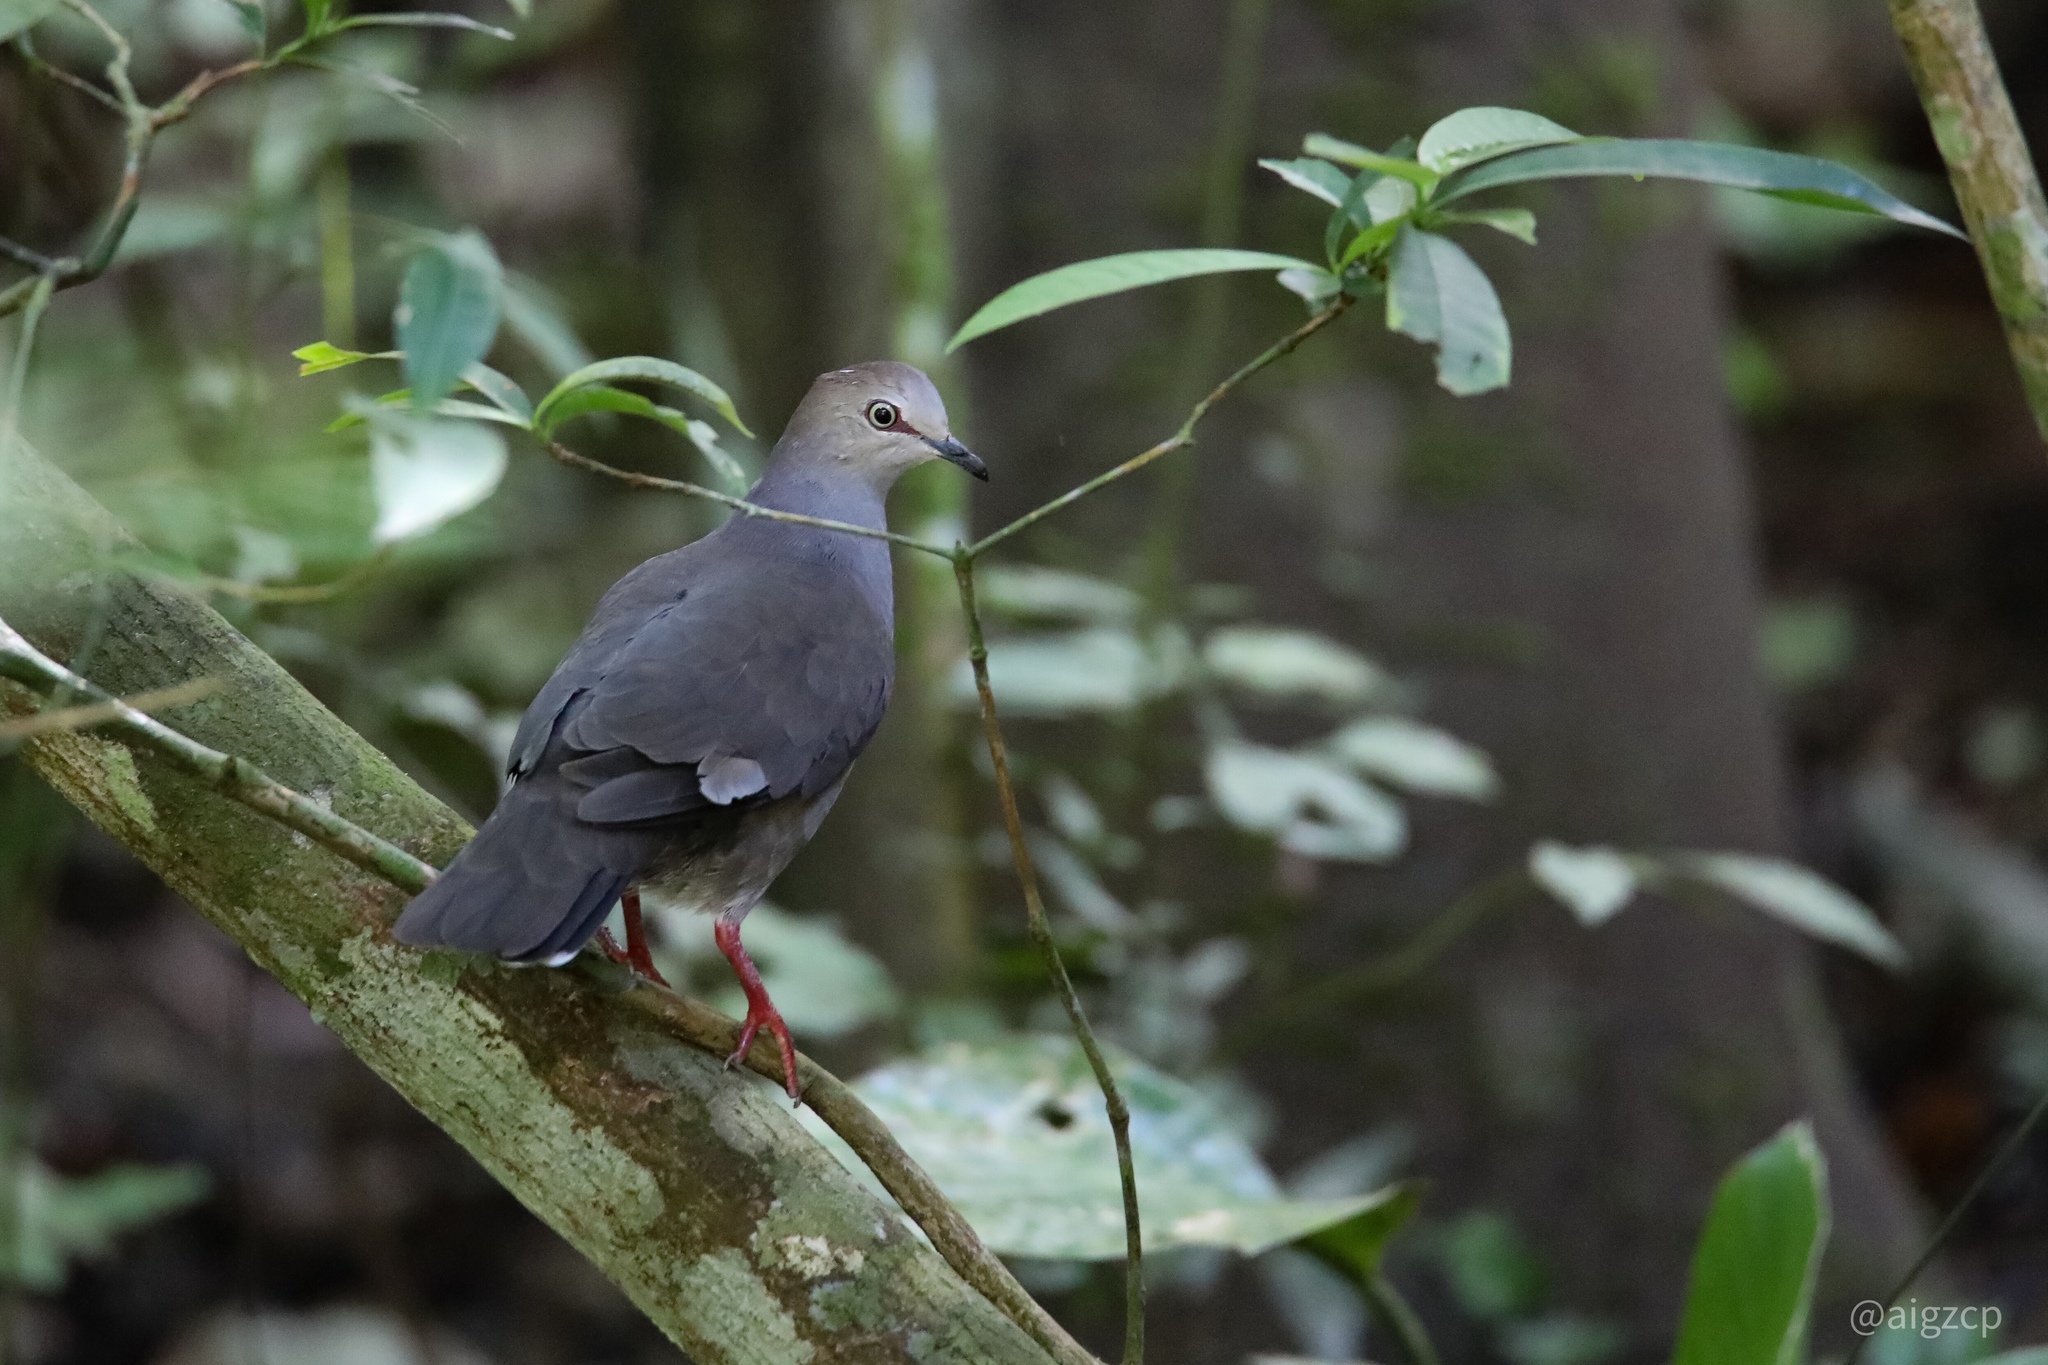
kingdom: Animalia
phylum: Chordata
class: Aves
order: Columbiformes
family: Columbidae
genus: Leptotila
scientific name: Leptotila cassinii
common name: Grey-chested dove
